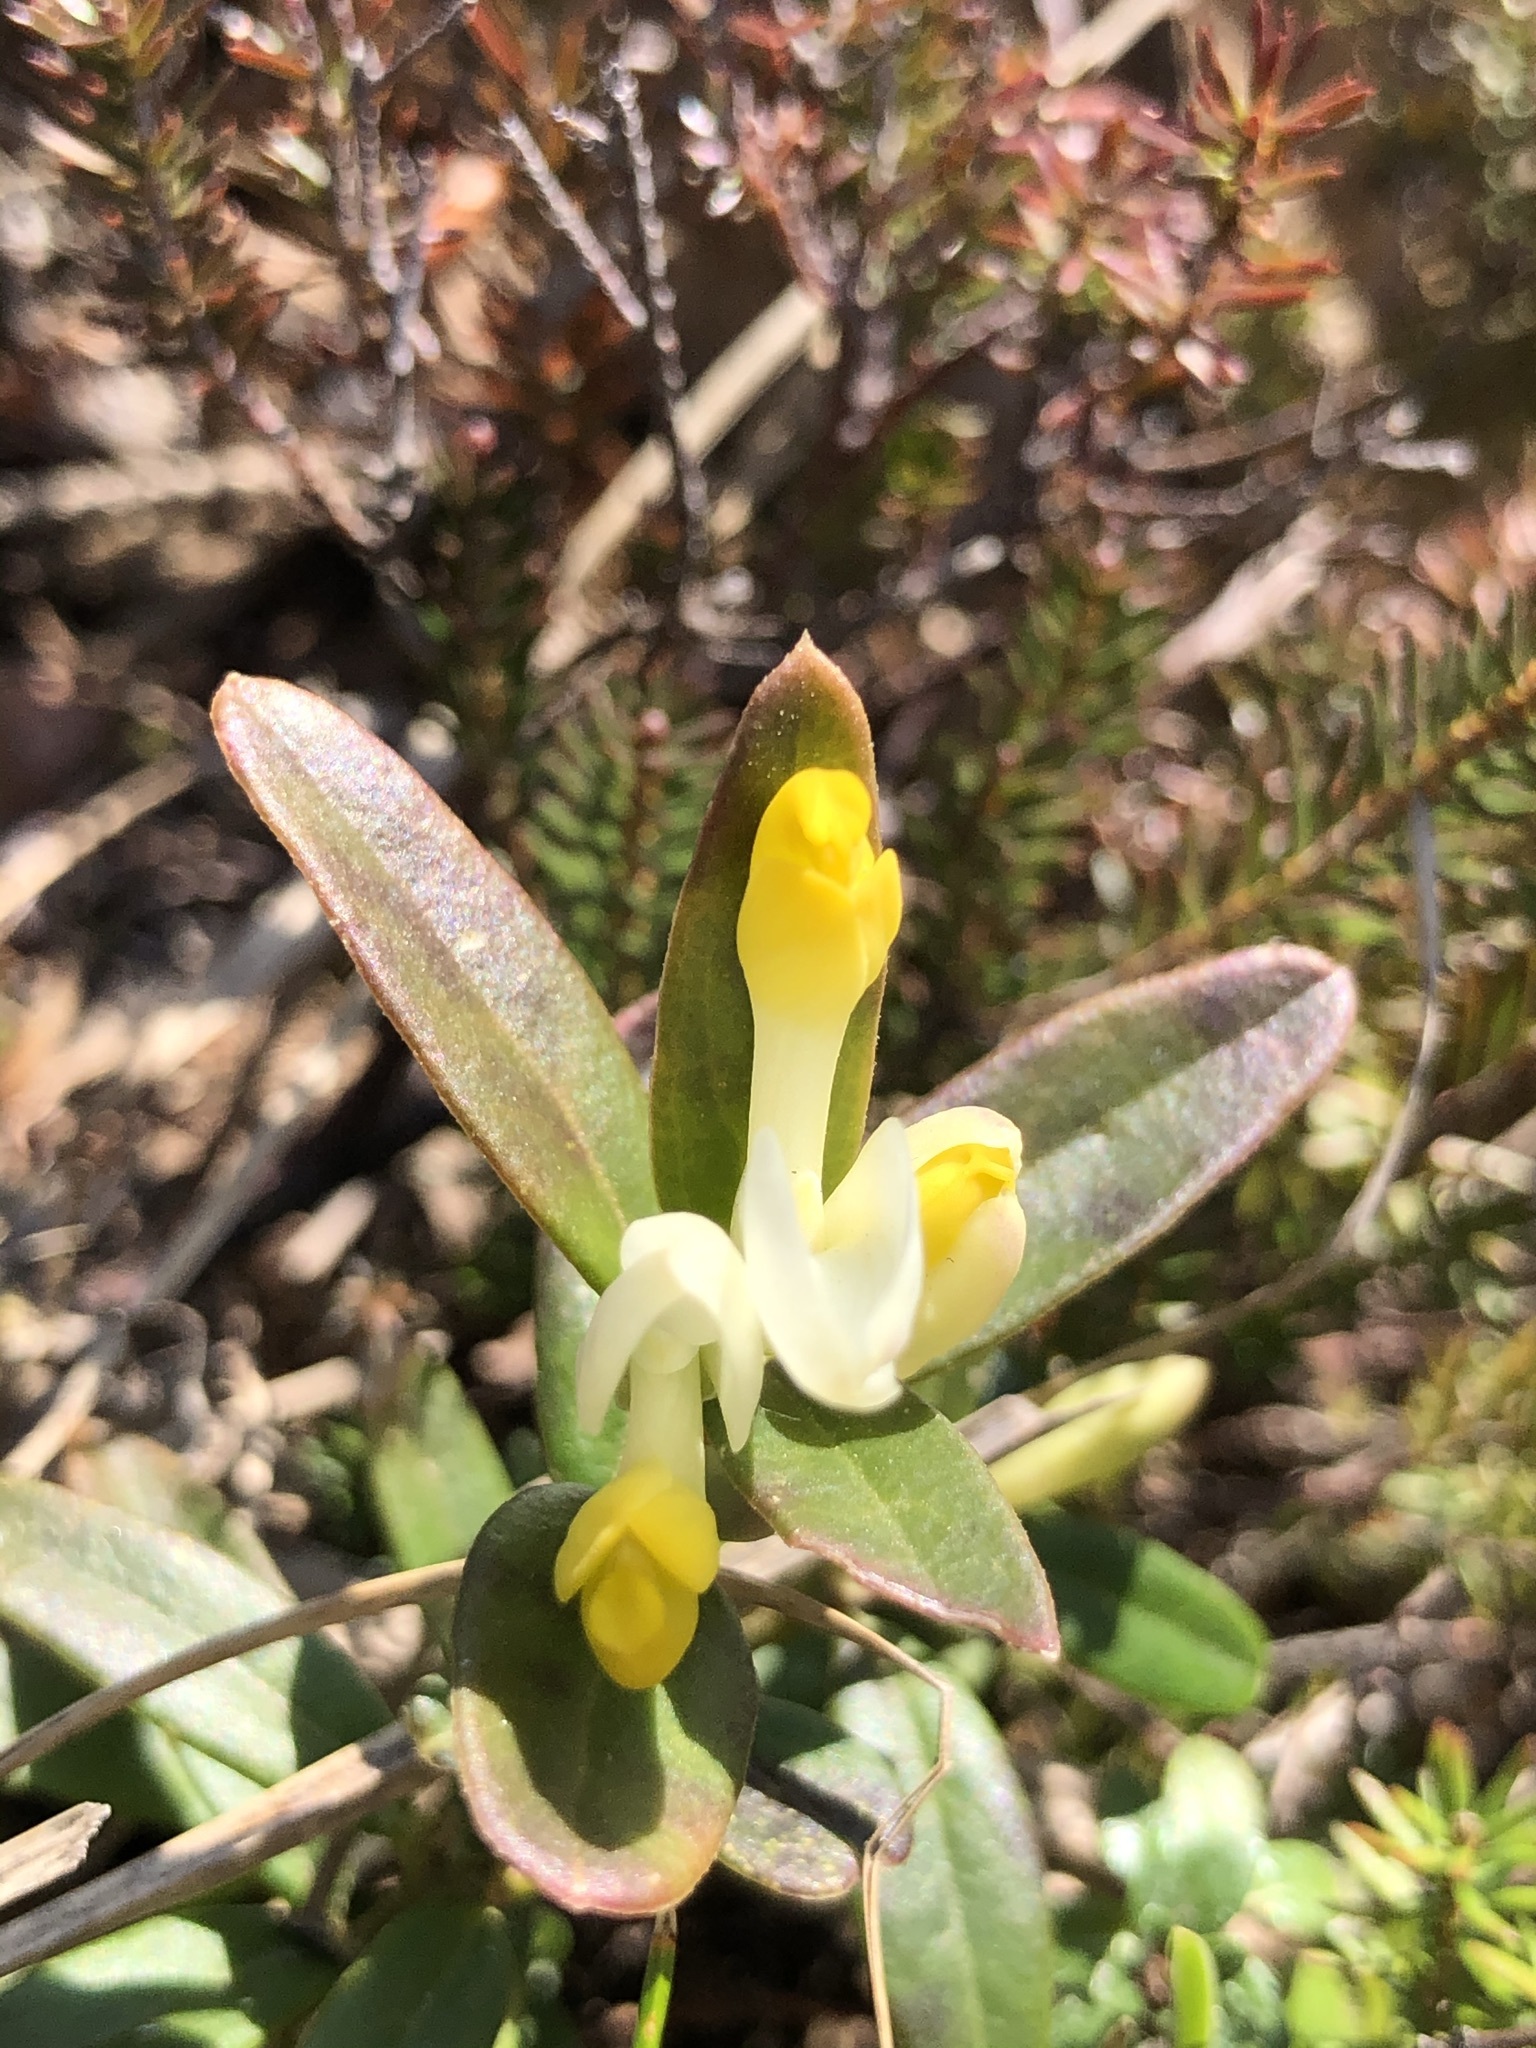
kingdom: Plantae
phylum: Tracheophyta
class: Magnoliopsida
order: Fabales
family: Polygalaceae
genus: Polygaloides
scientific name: Polygaloides chamaebuxus
